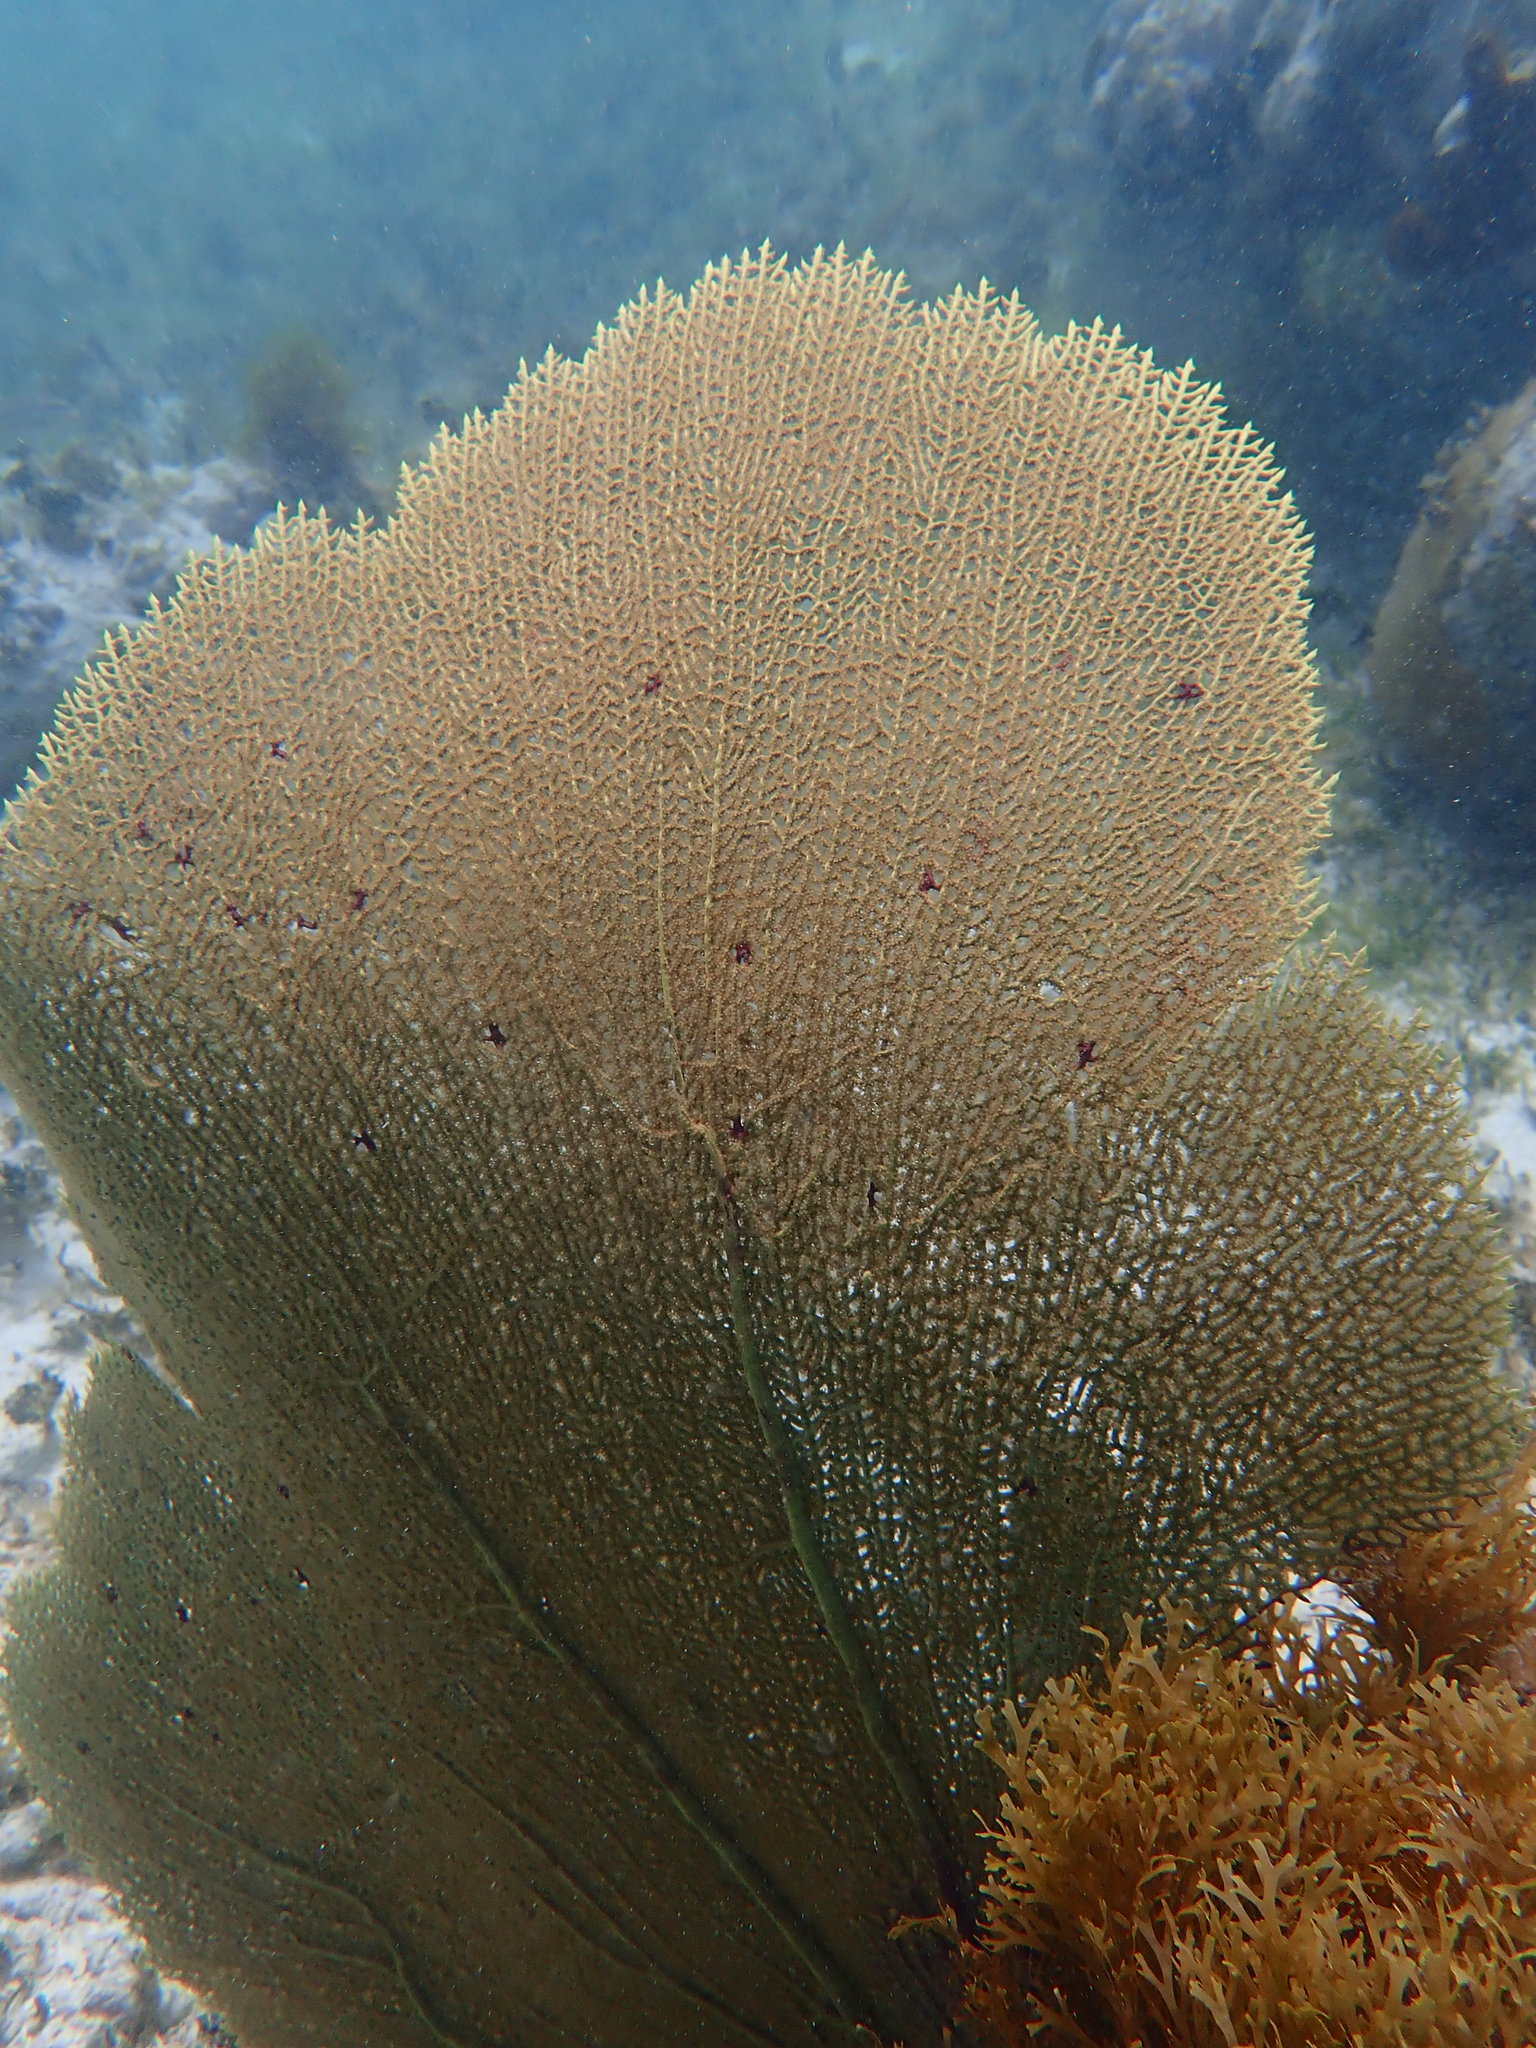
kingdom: Animalia
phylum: Cnidaria
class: Anthozoa
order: Malacalcyonacea
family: Gorgoniidae
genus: Gorgonia
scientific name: Gorgonia ventalina
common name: Common sea fan
